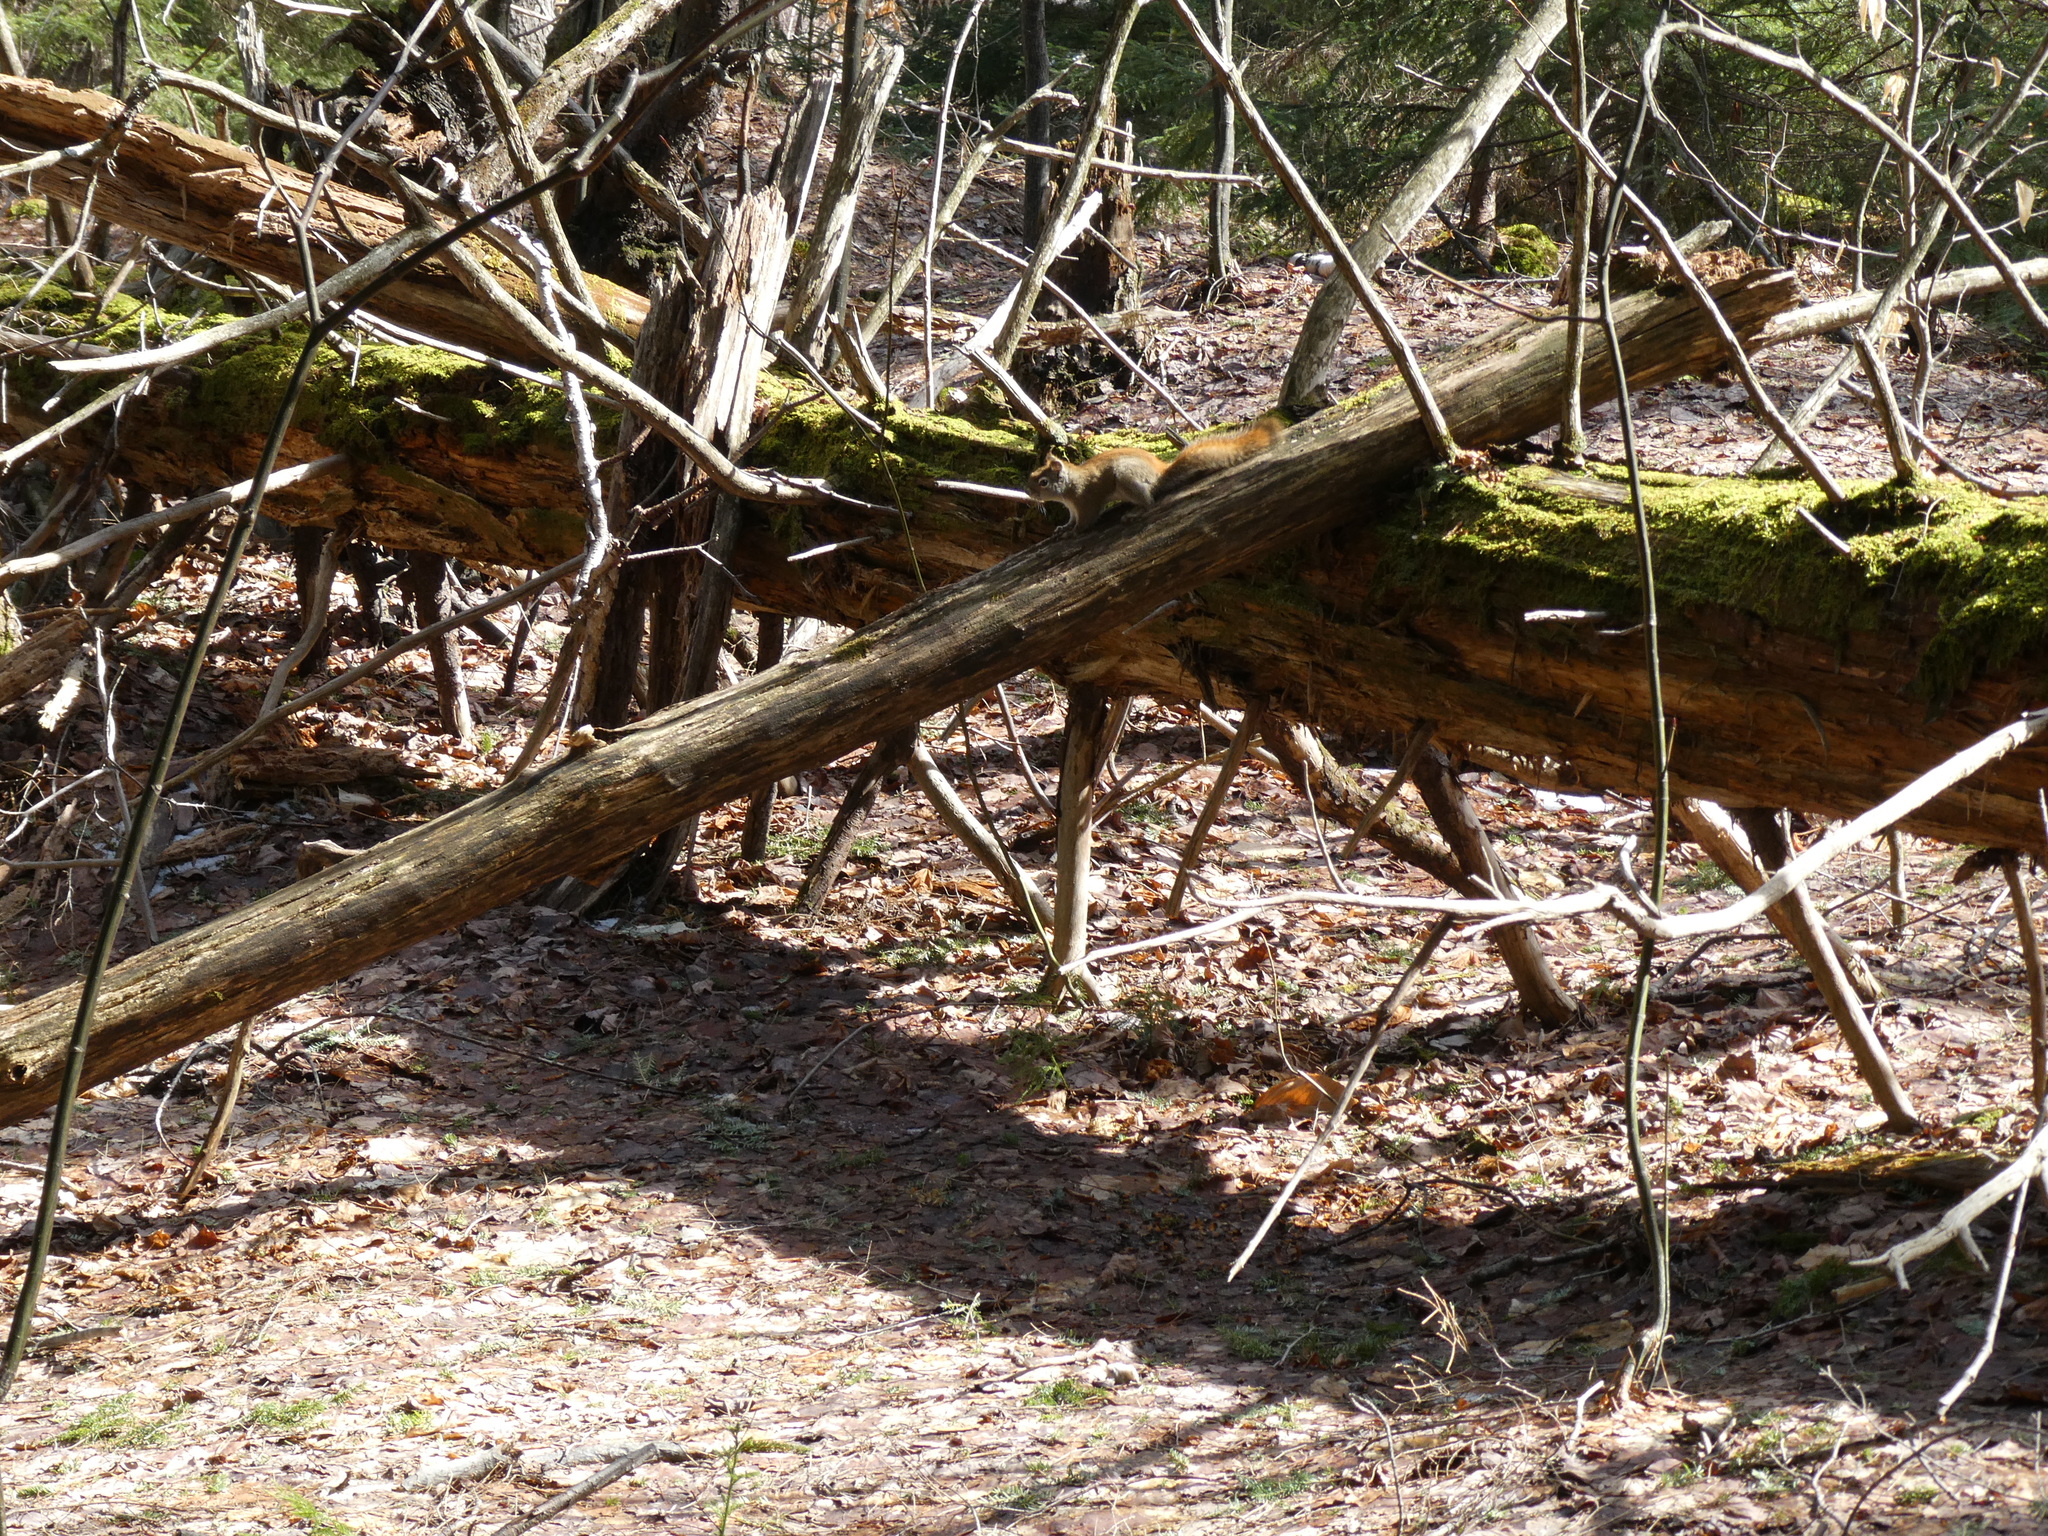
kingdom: Animalia
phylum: Chordata
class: Mammalia
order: Rodentia
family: Sciuridae
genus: Tamiasciurus
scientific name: Tamiasciurus hudsonicus
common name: Red squirrel
